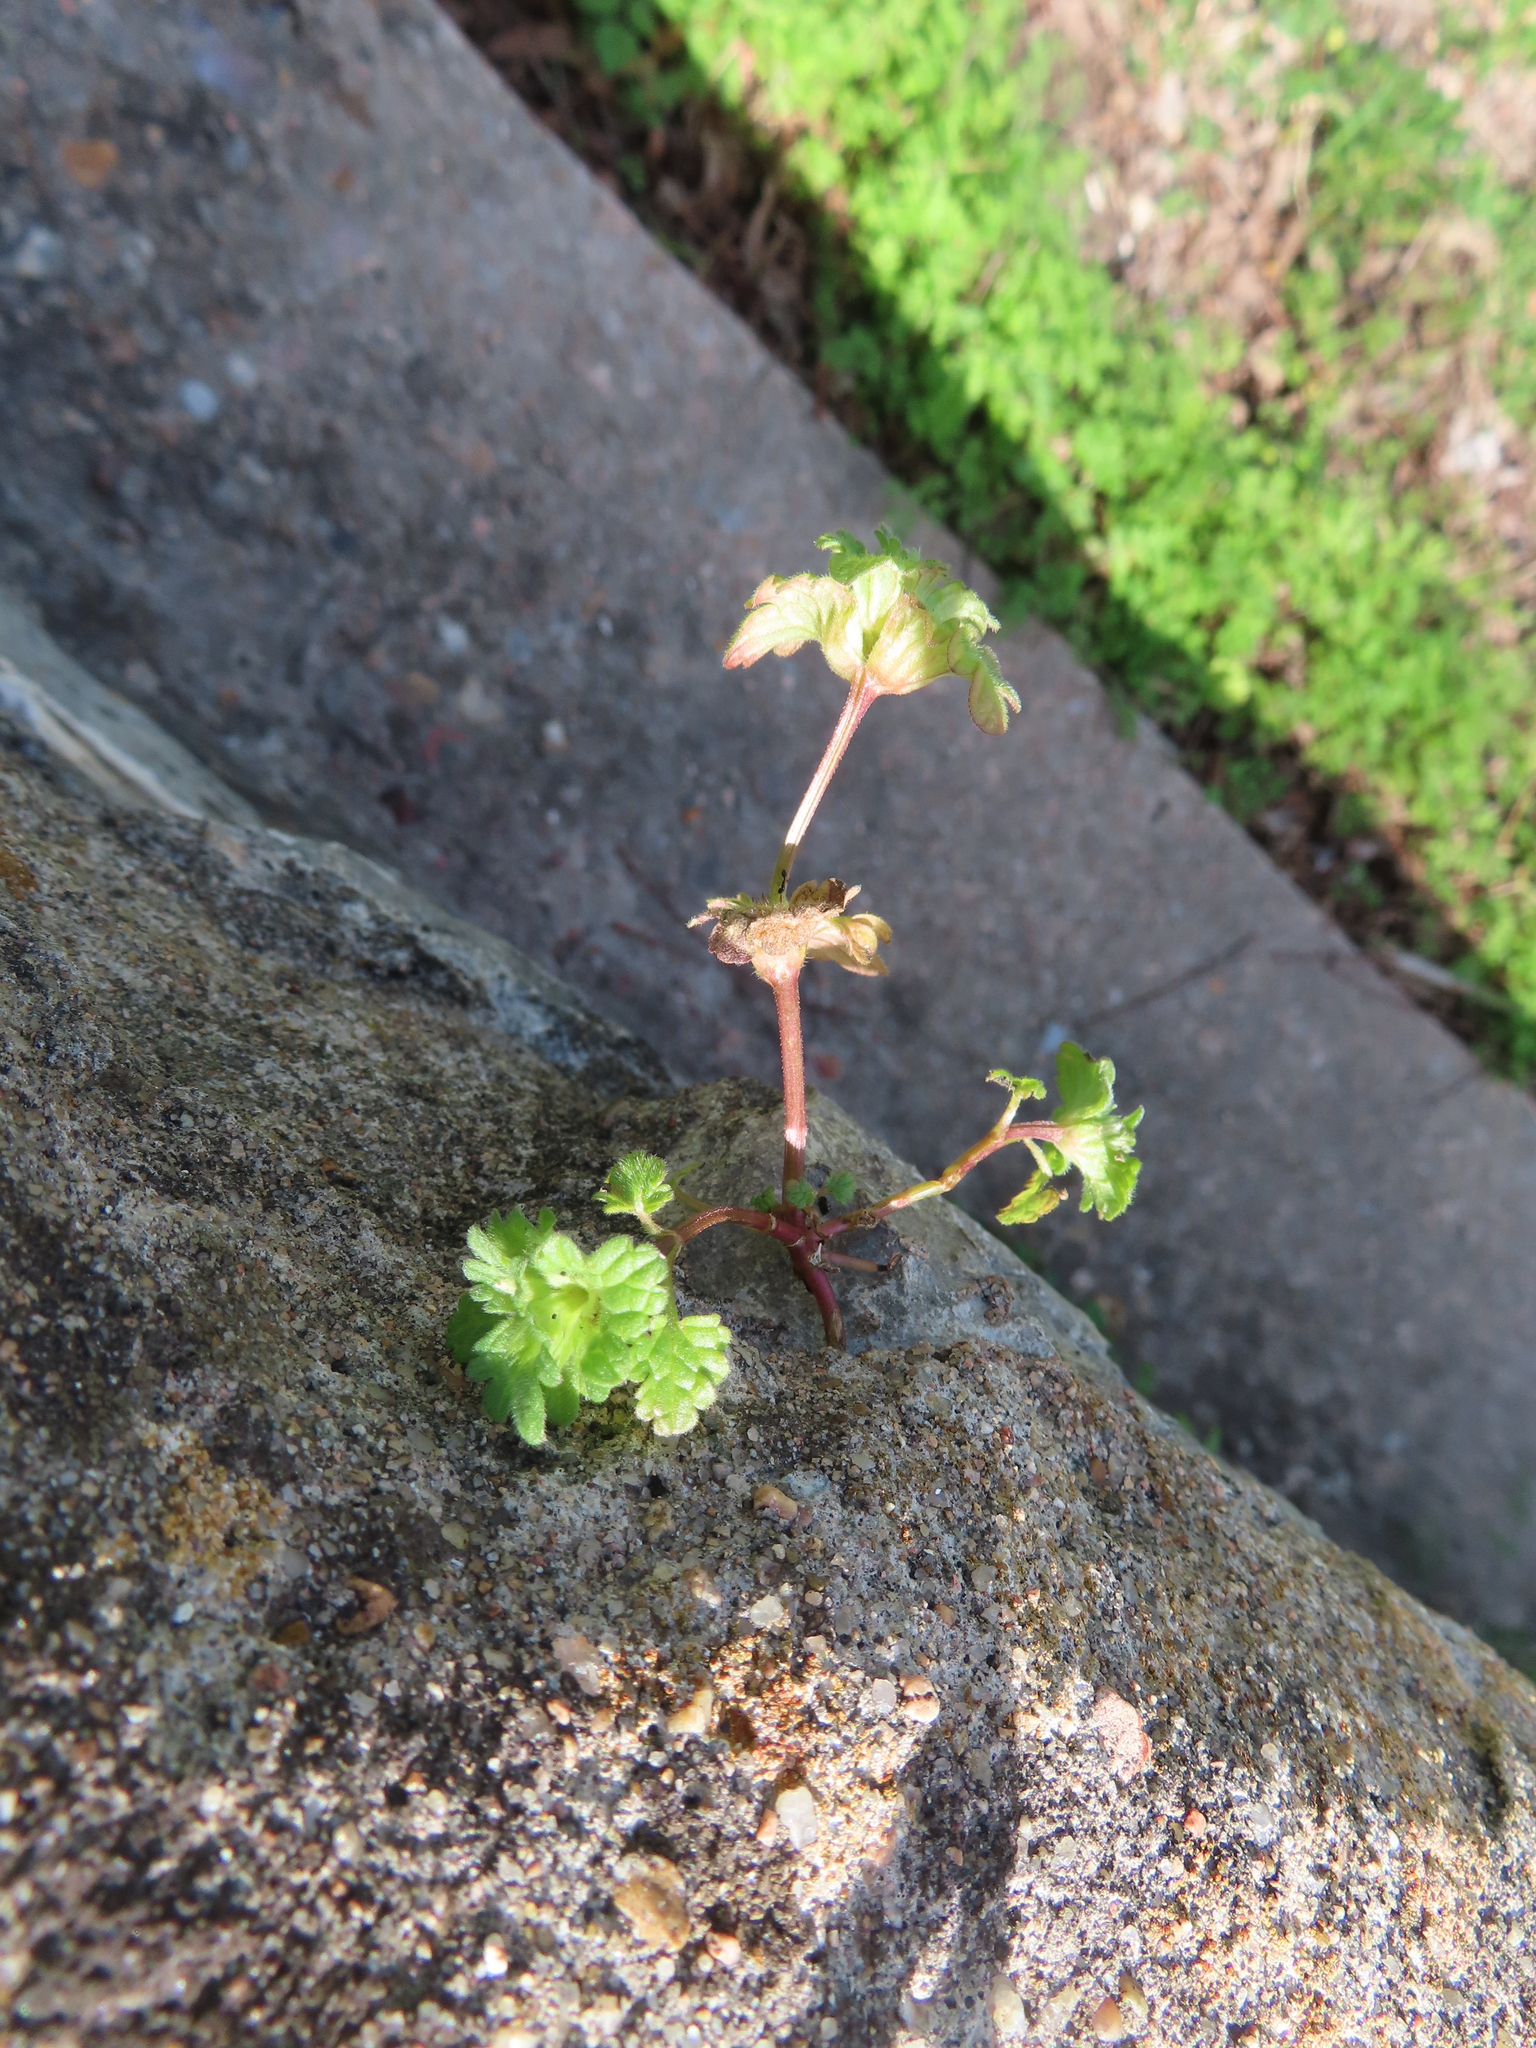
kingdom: Plantae
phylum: Tracheophyta
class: Magnoliopsida
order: Lamiales
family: Lamiaceae
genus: Lamium
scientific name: Lamium amplexicaule
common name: Henbit dead-nettle
